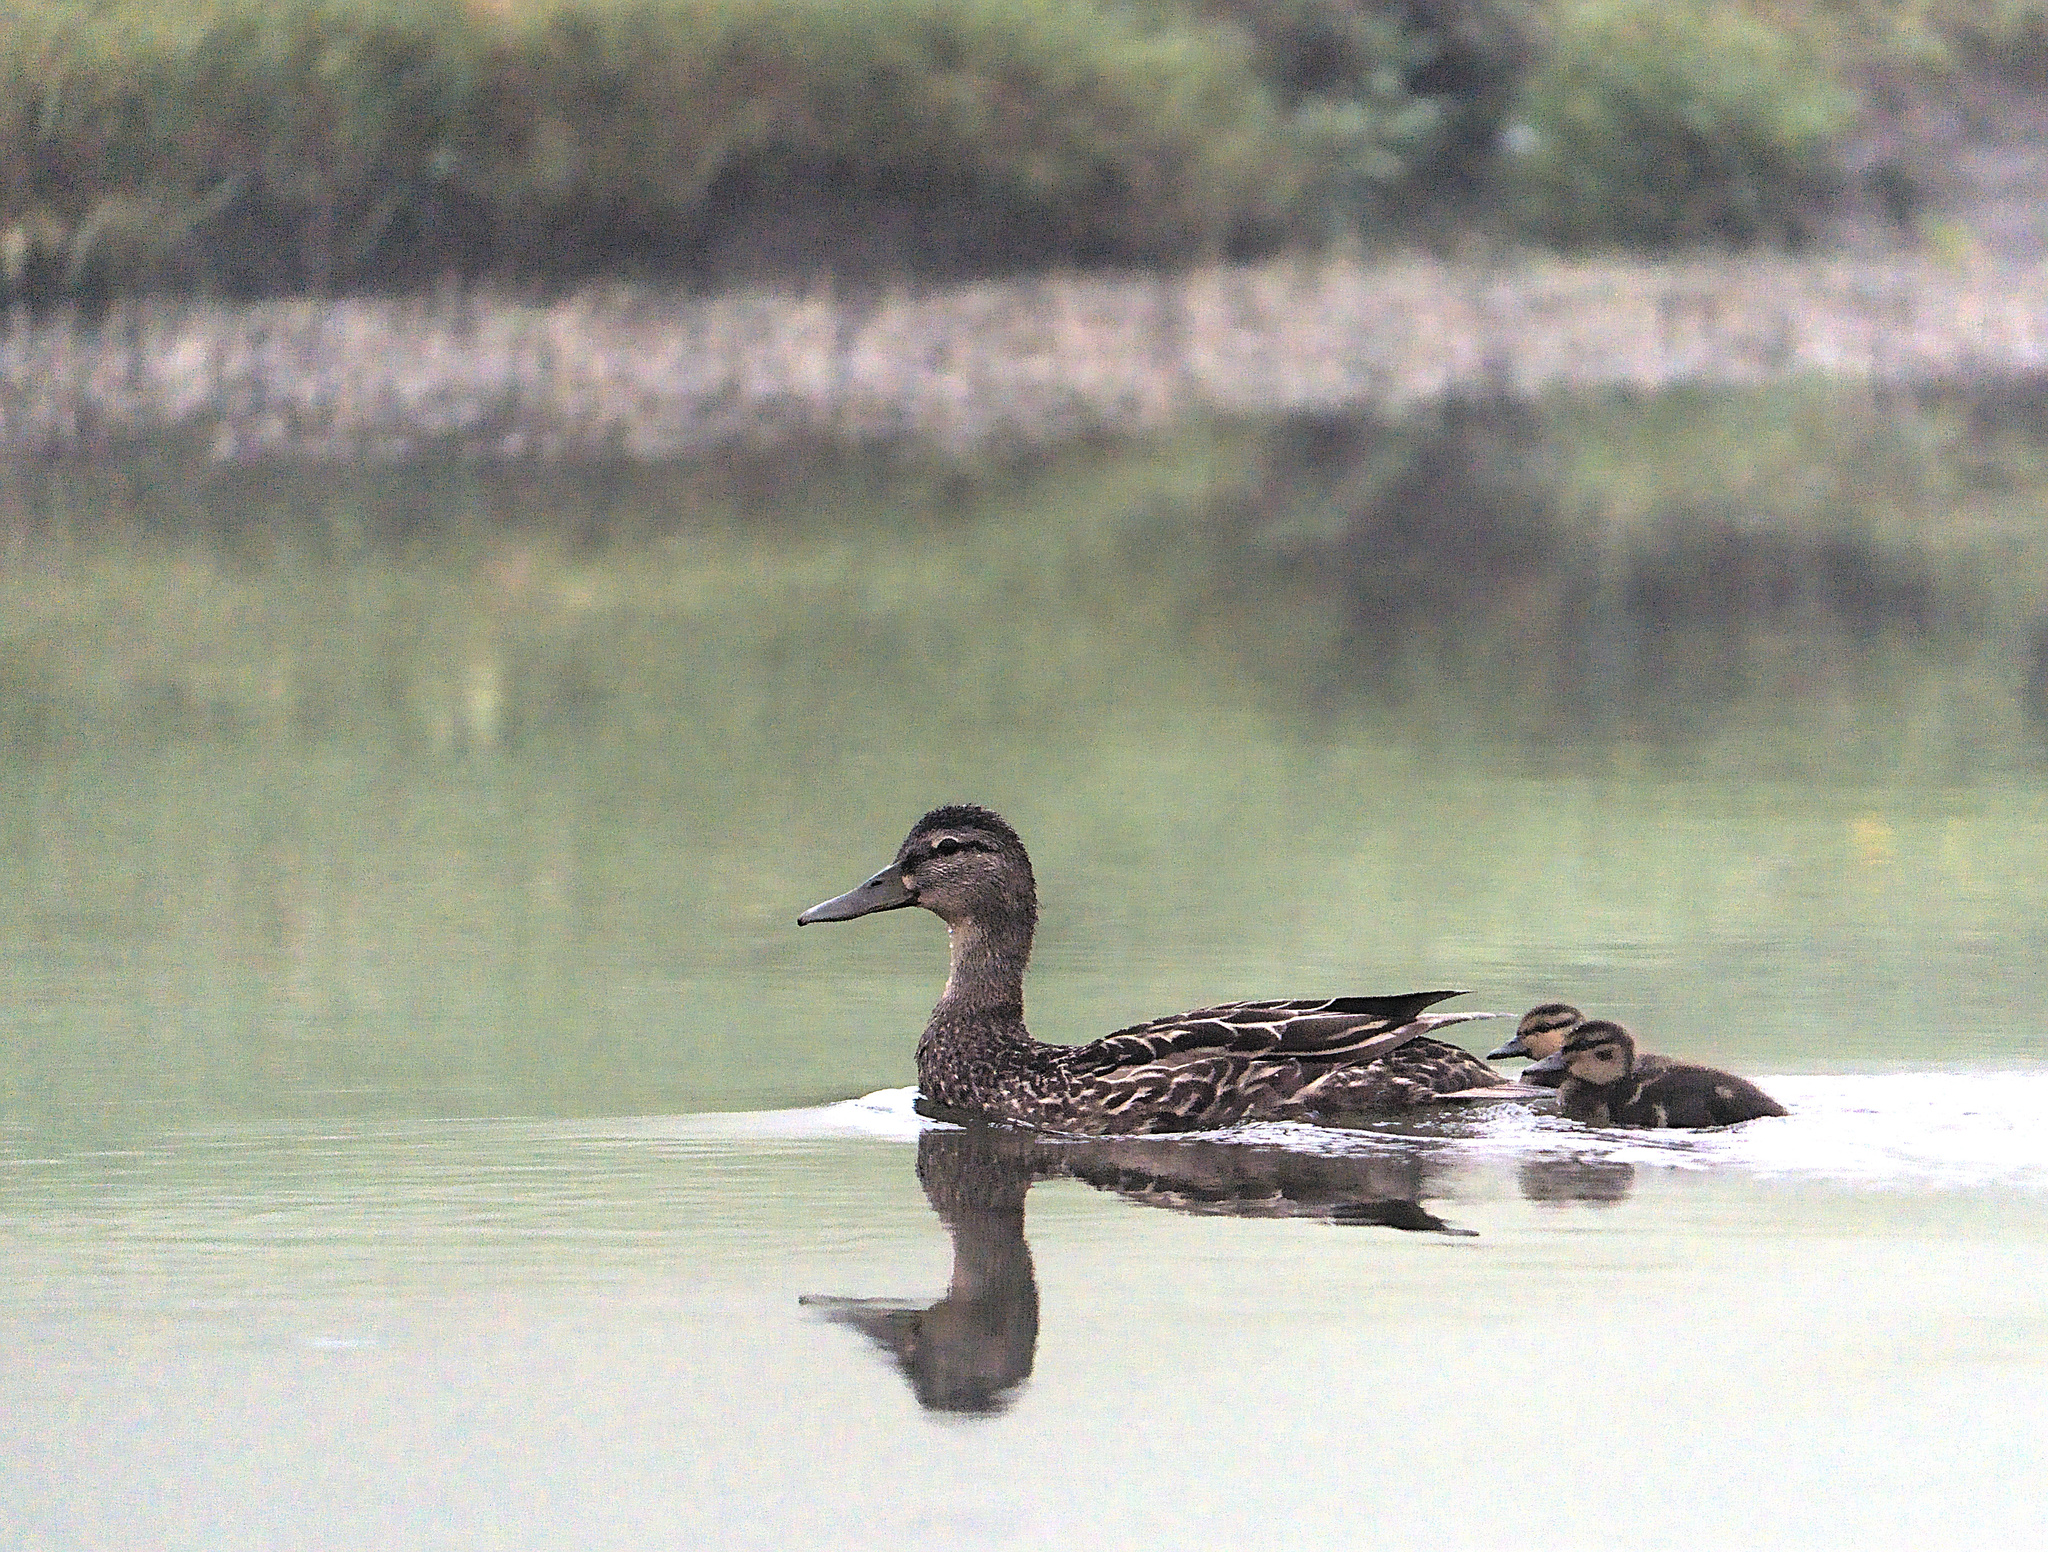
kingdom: Animalia
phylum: Chordata
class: Aves
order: Anseriformes
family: Anatidae
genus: Anas
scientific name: Anas platyrhynchos
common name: Mallard
